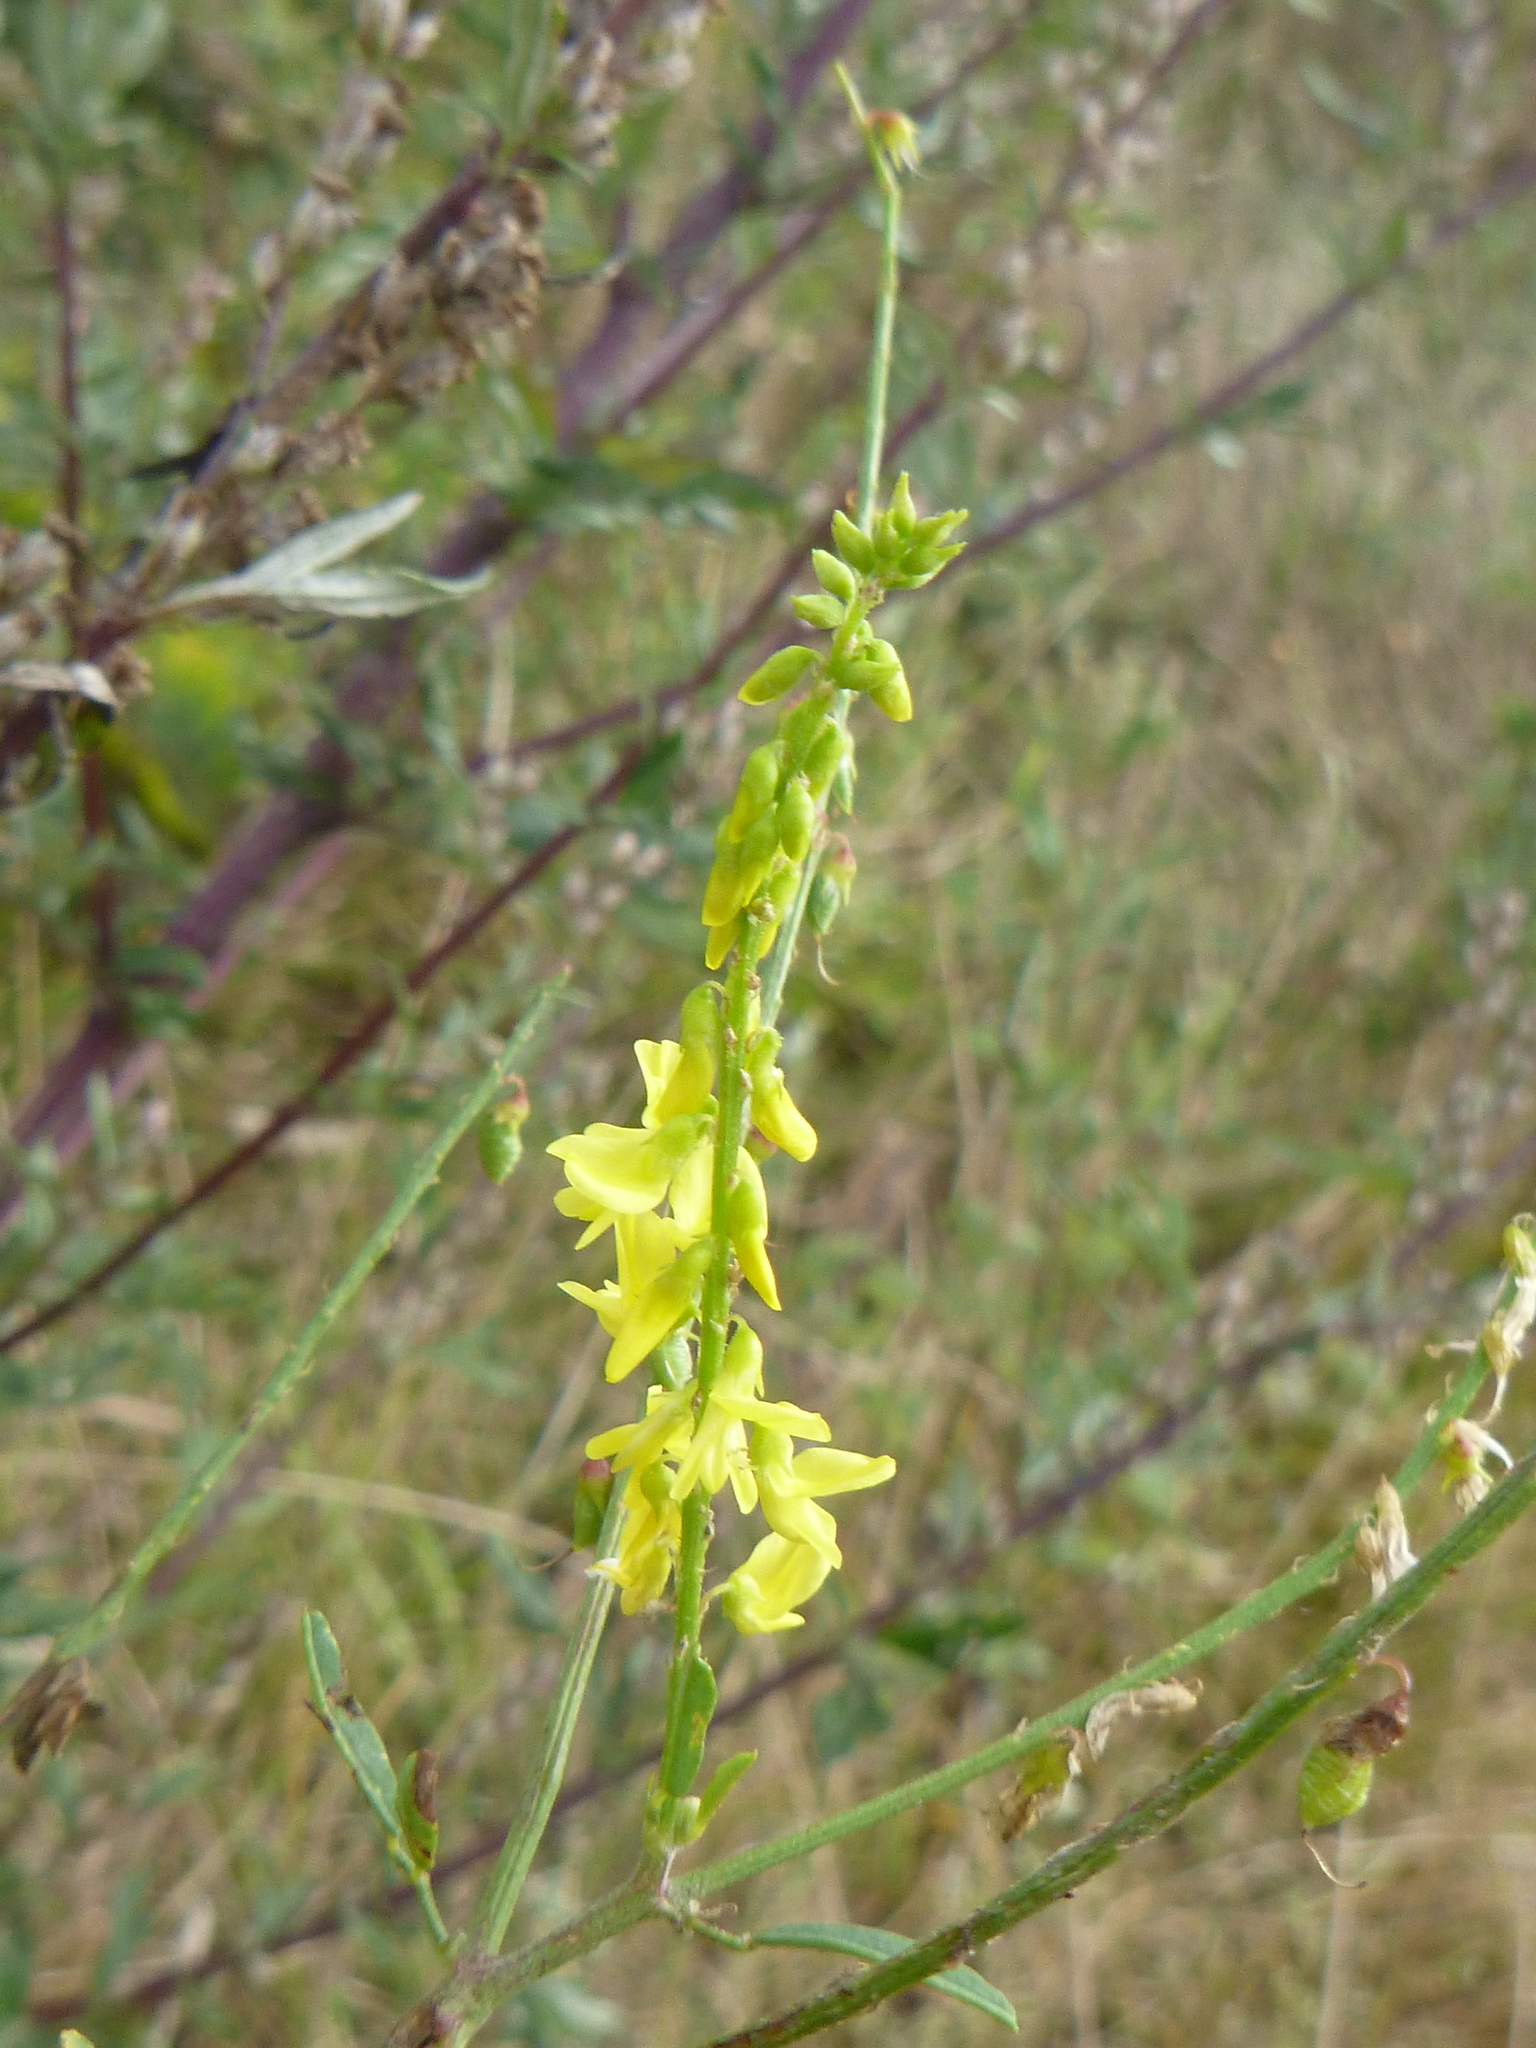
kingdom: Plantae
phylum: Tracheophyta
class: Magnoliopsida
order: Fabales
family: Fabaceae
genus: Melilotus
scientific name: Melilotus officinalis
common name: Sweetclover
